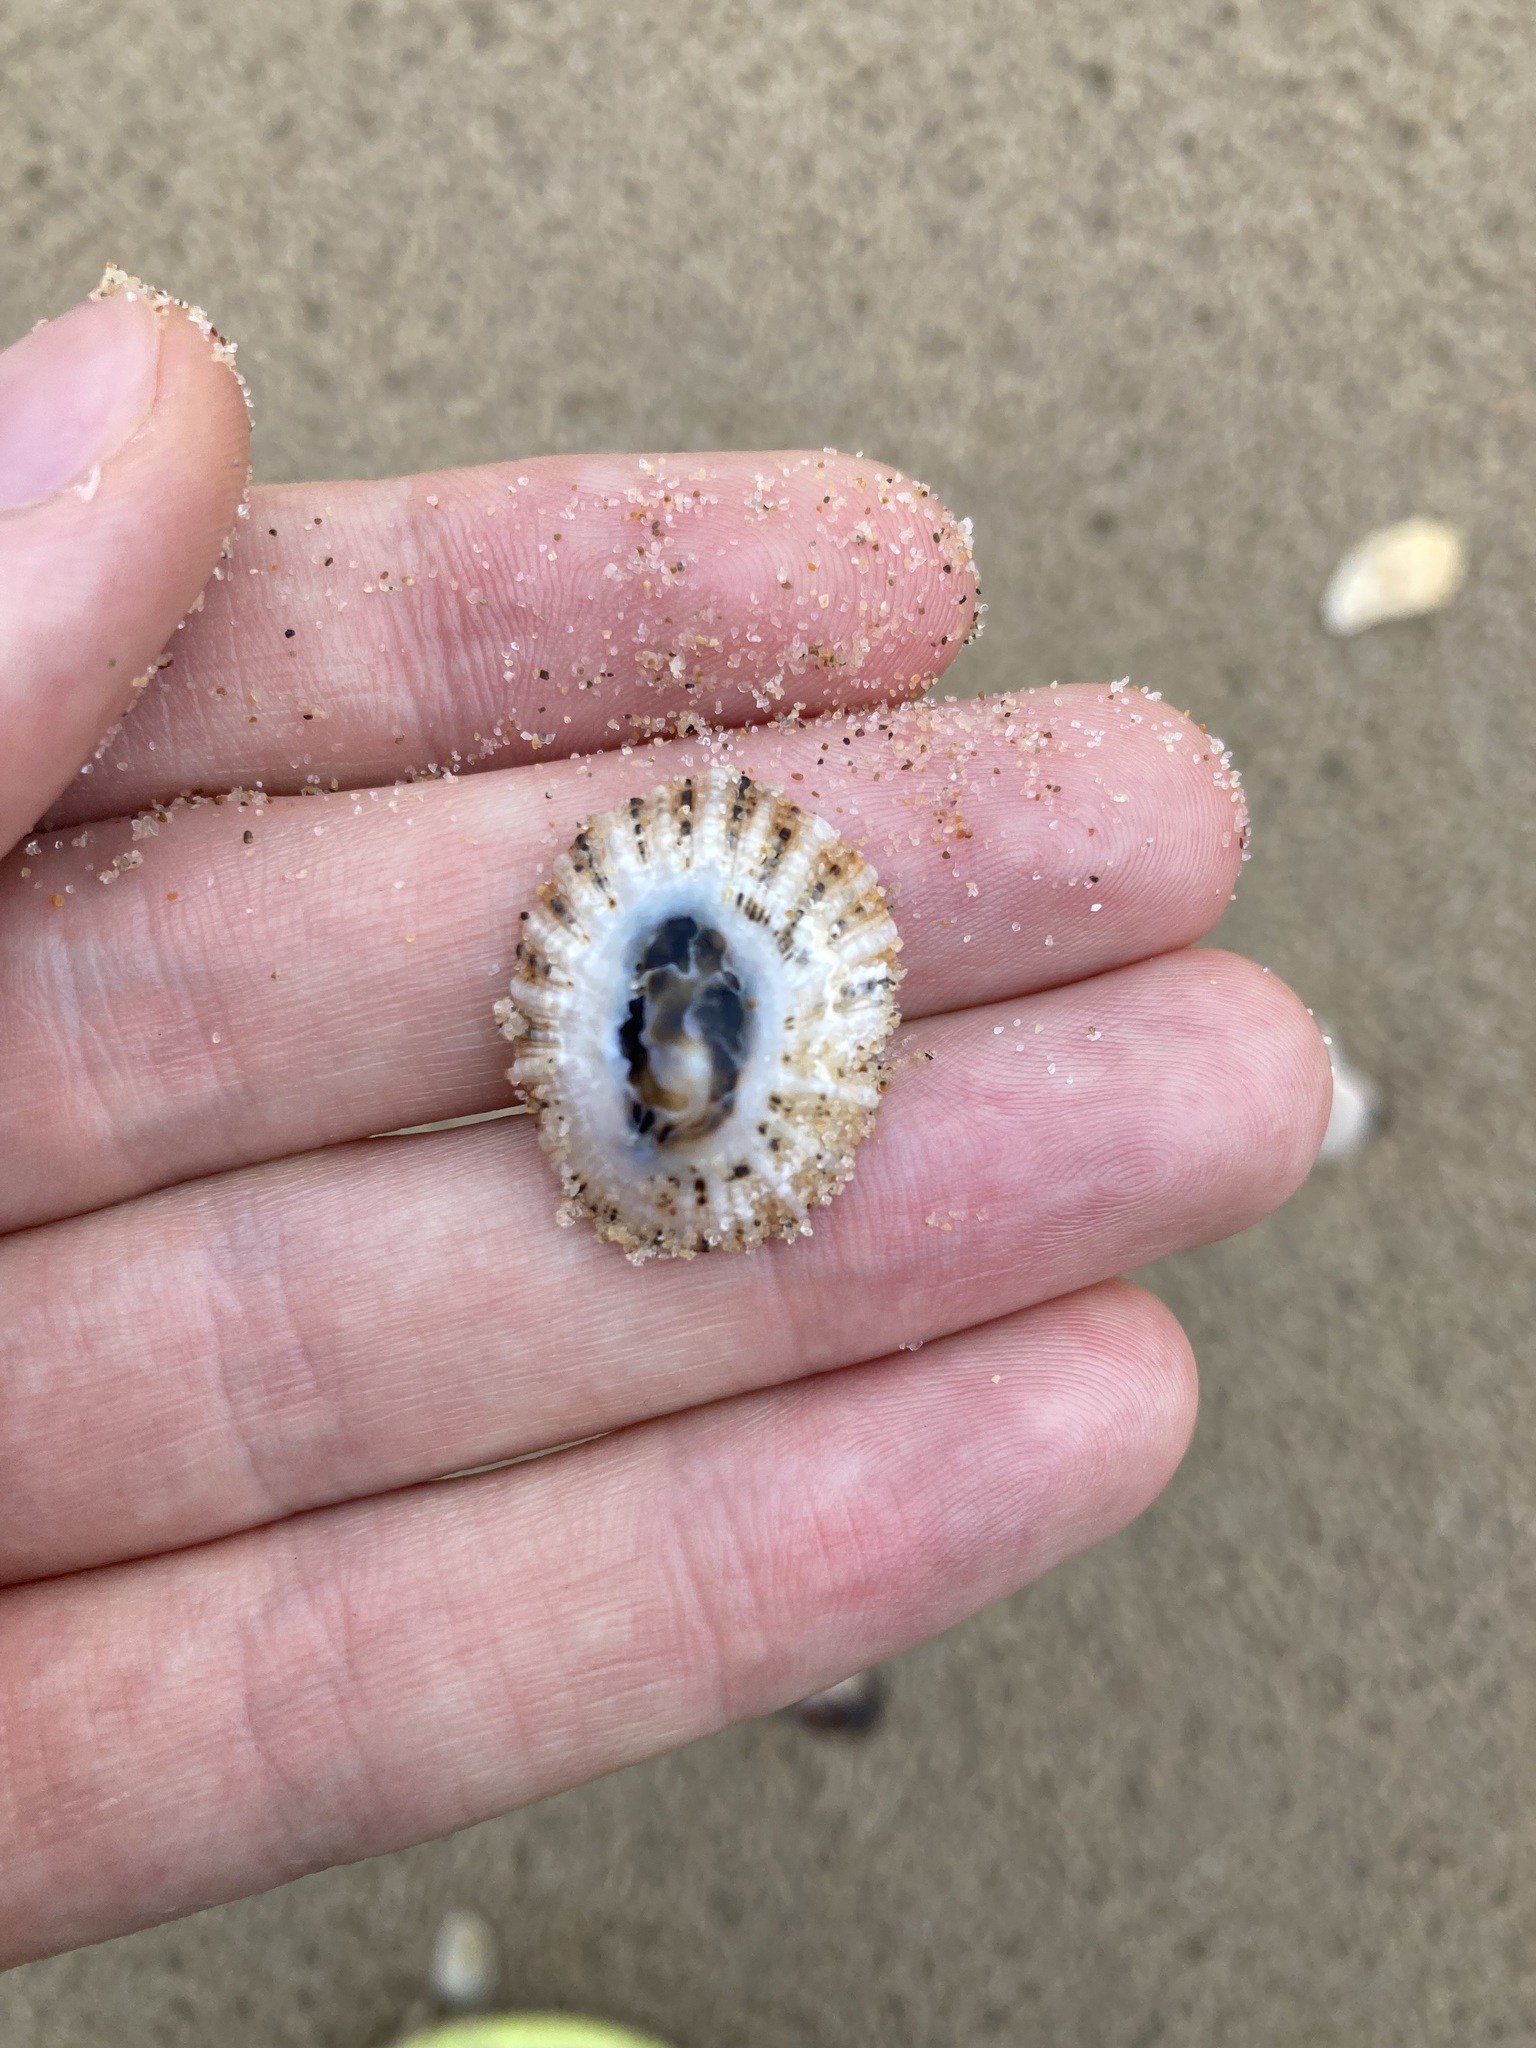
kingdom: Animalia
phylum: Mollusca
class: Gastropoda
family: Patellidae
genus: Scutellastra
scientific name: Scutellastra peronii
